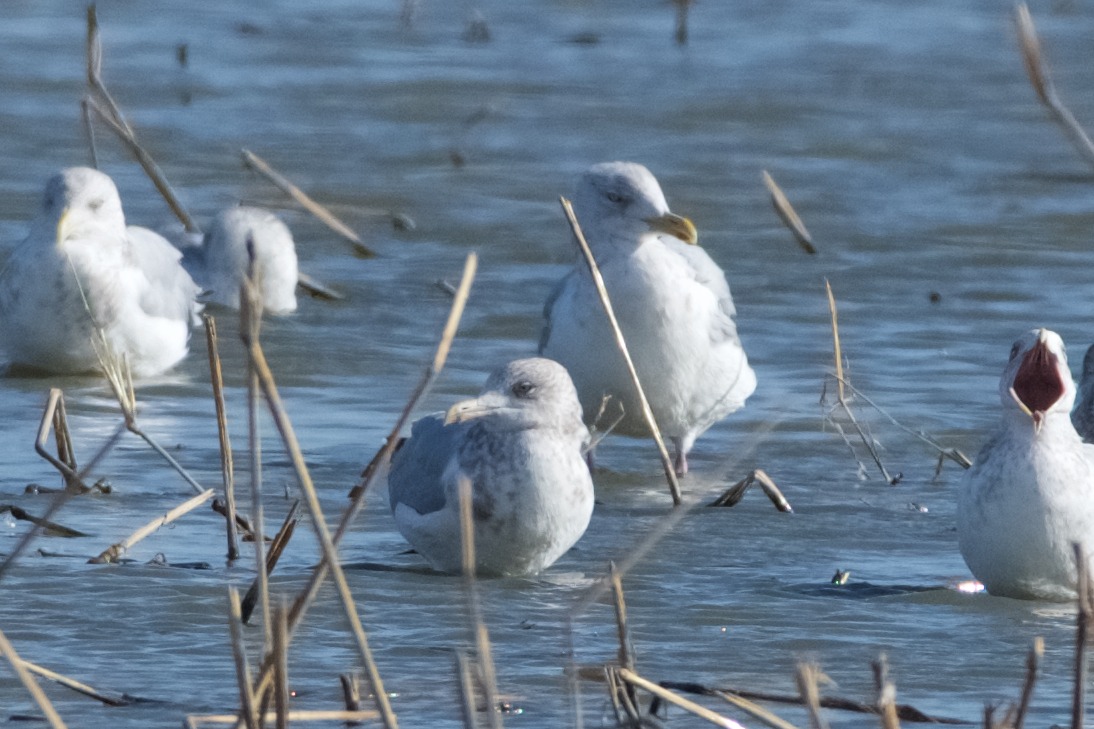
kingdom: Animalia
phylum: Chordata
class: Aves
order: Charadriiformes
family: Laridae
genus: Larus
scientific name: Larus argentatus
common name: Herring gull
